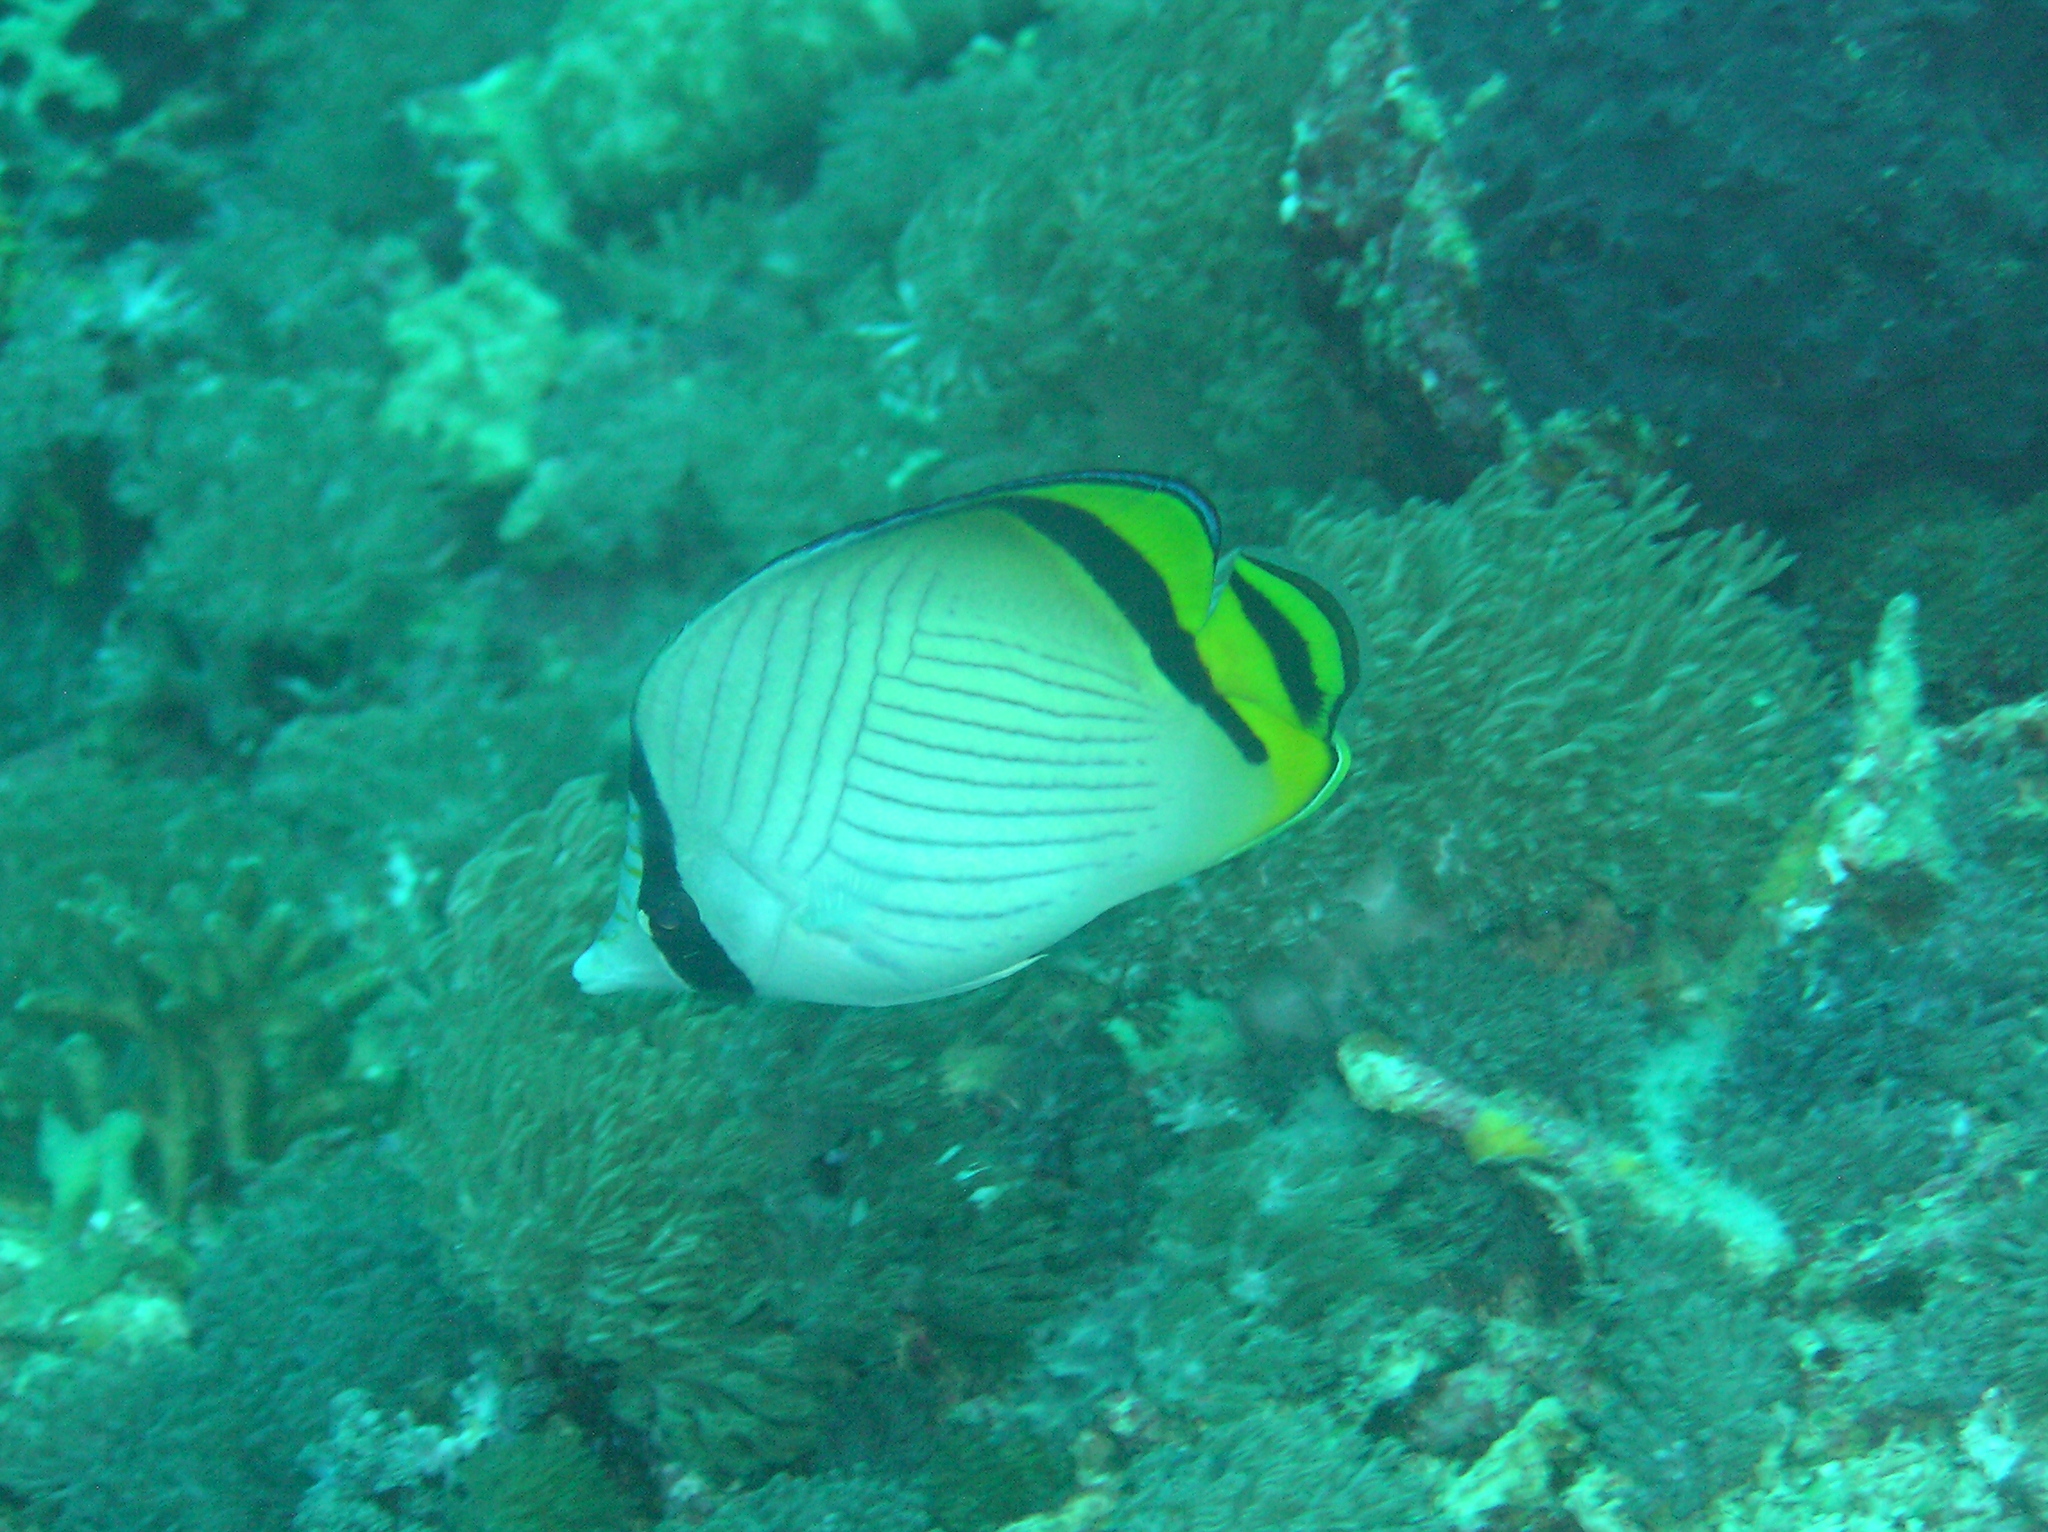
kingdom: Animalia
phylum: Chordata
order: Perciformes
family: Chaetodontidae
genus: Chaetodon
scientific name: Chaetodon vagabundus
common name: Vagabond butterflyfish
